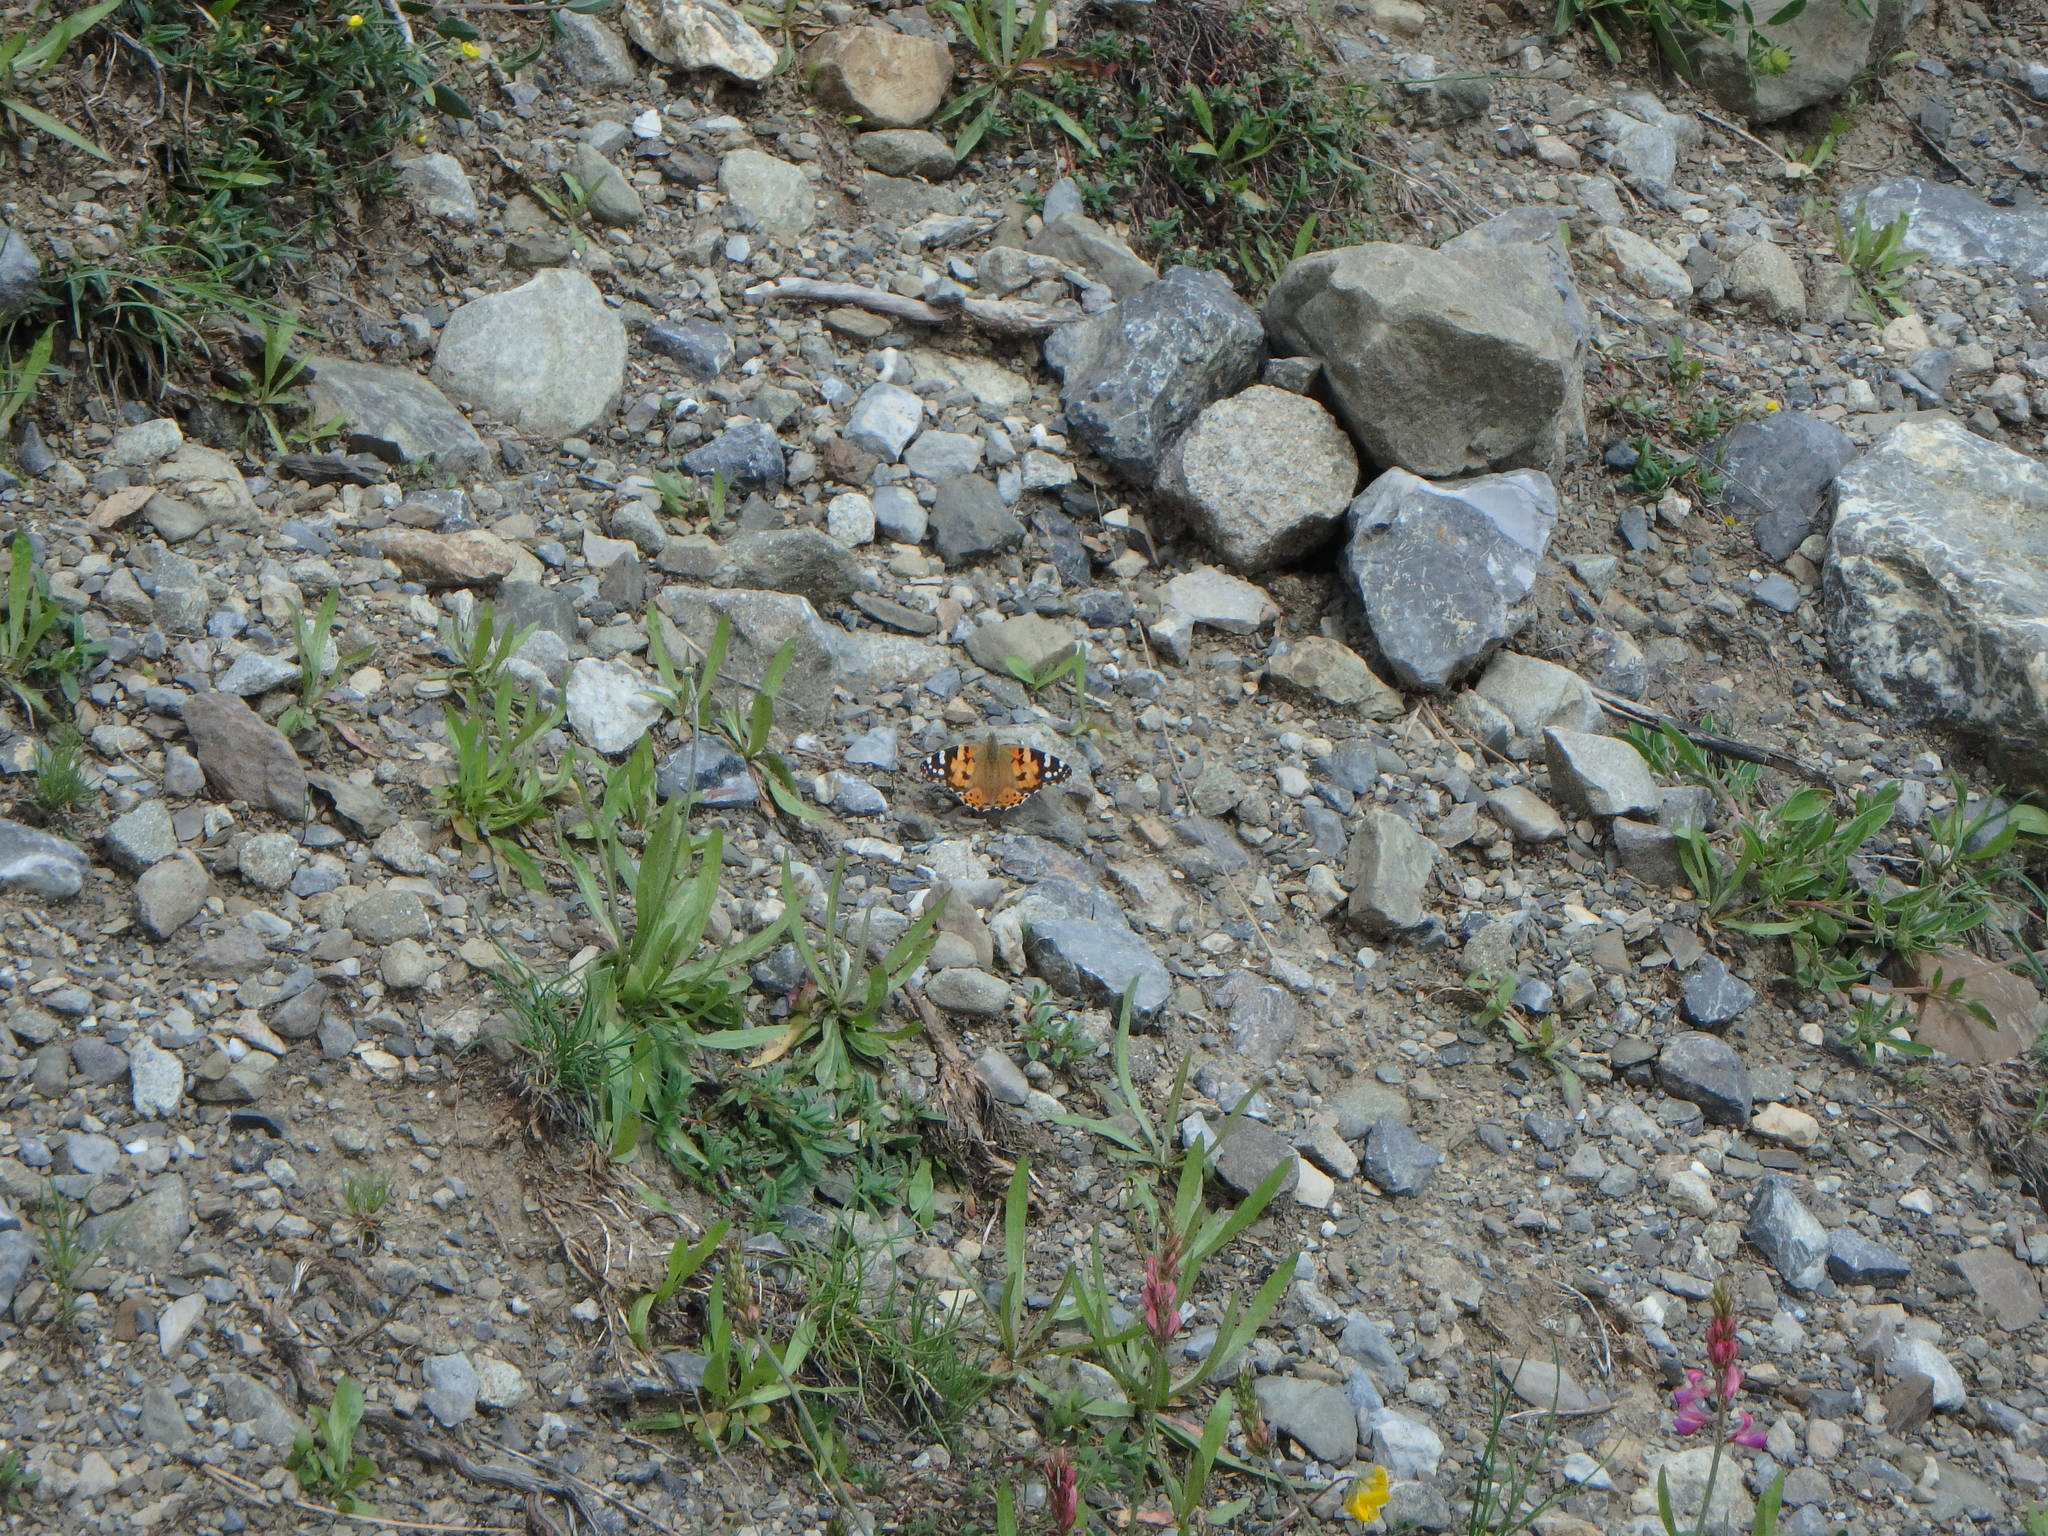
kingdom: Animalia
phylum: Arthropoda
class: Insecta
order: Lepidoptera
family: Nymphalidae
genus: Vanessa
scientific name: Vanessa cardui
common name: Painted lady
